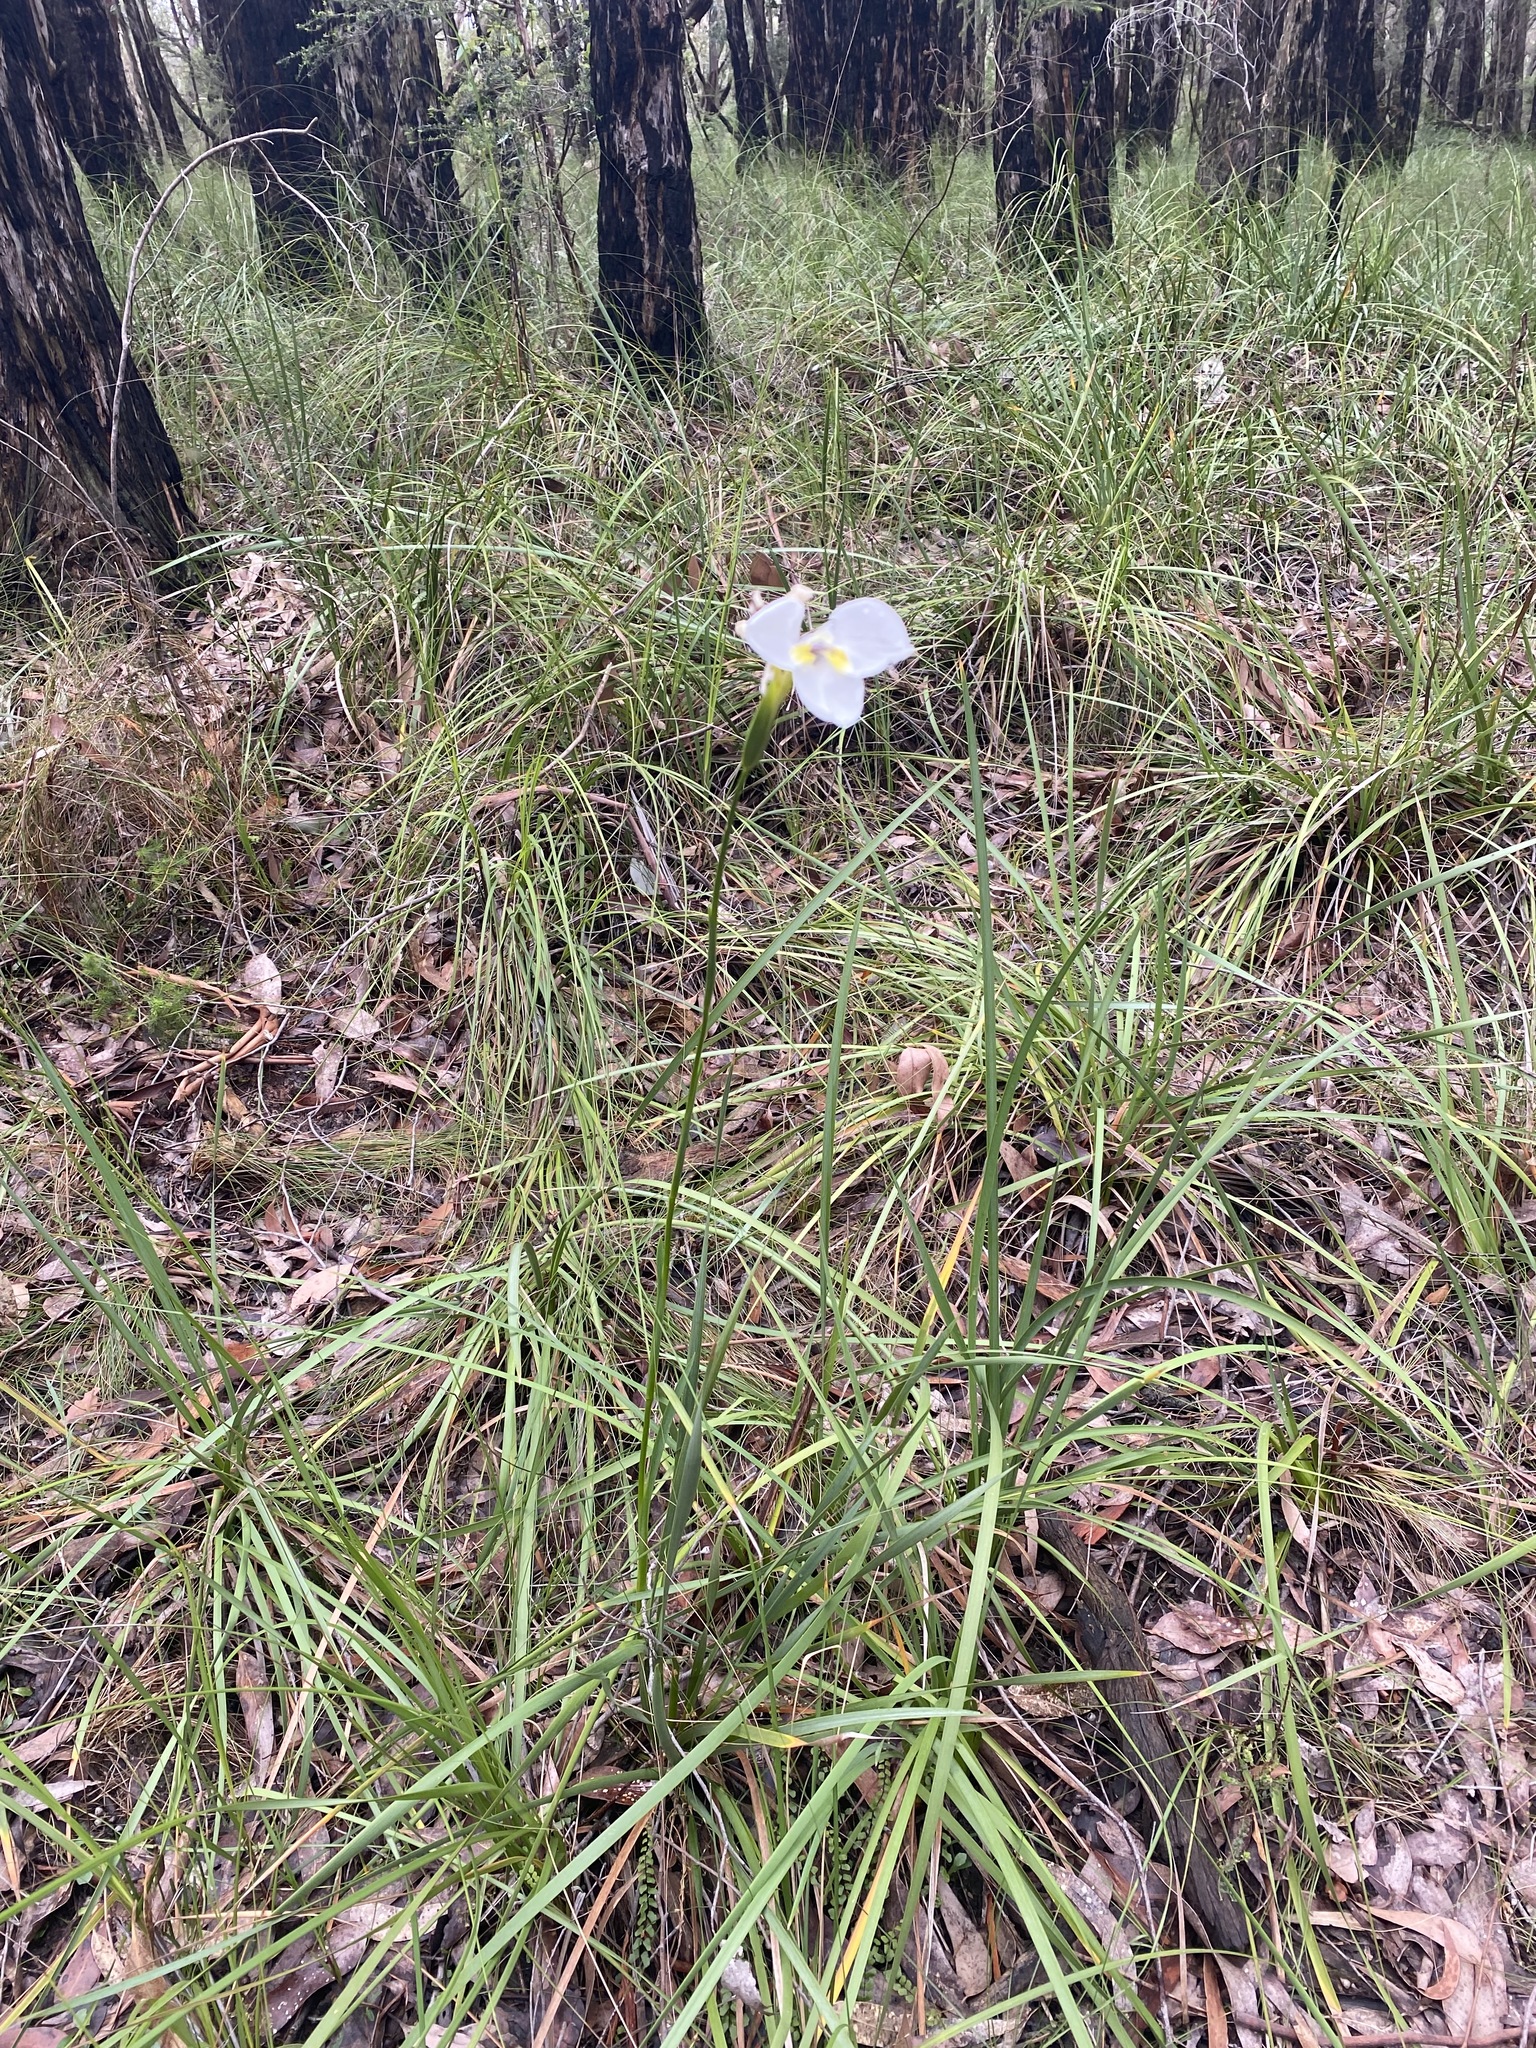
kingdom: Plantae
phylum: Tracheophyta
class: Liliopsida
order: Asparagales
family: Iridaceae
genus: Diplarrena
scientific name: Diplarrena moraea
